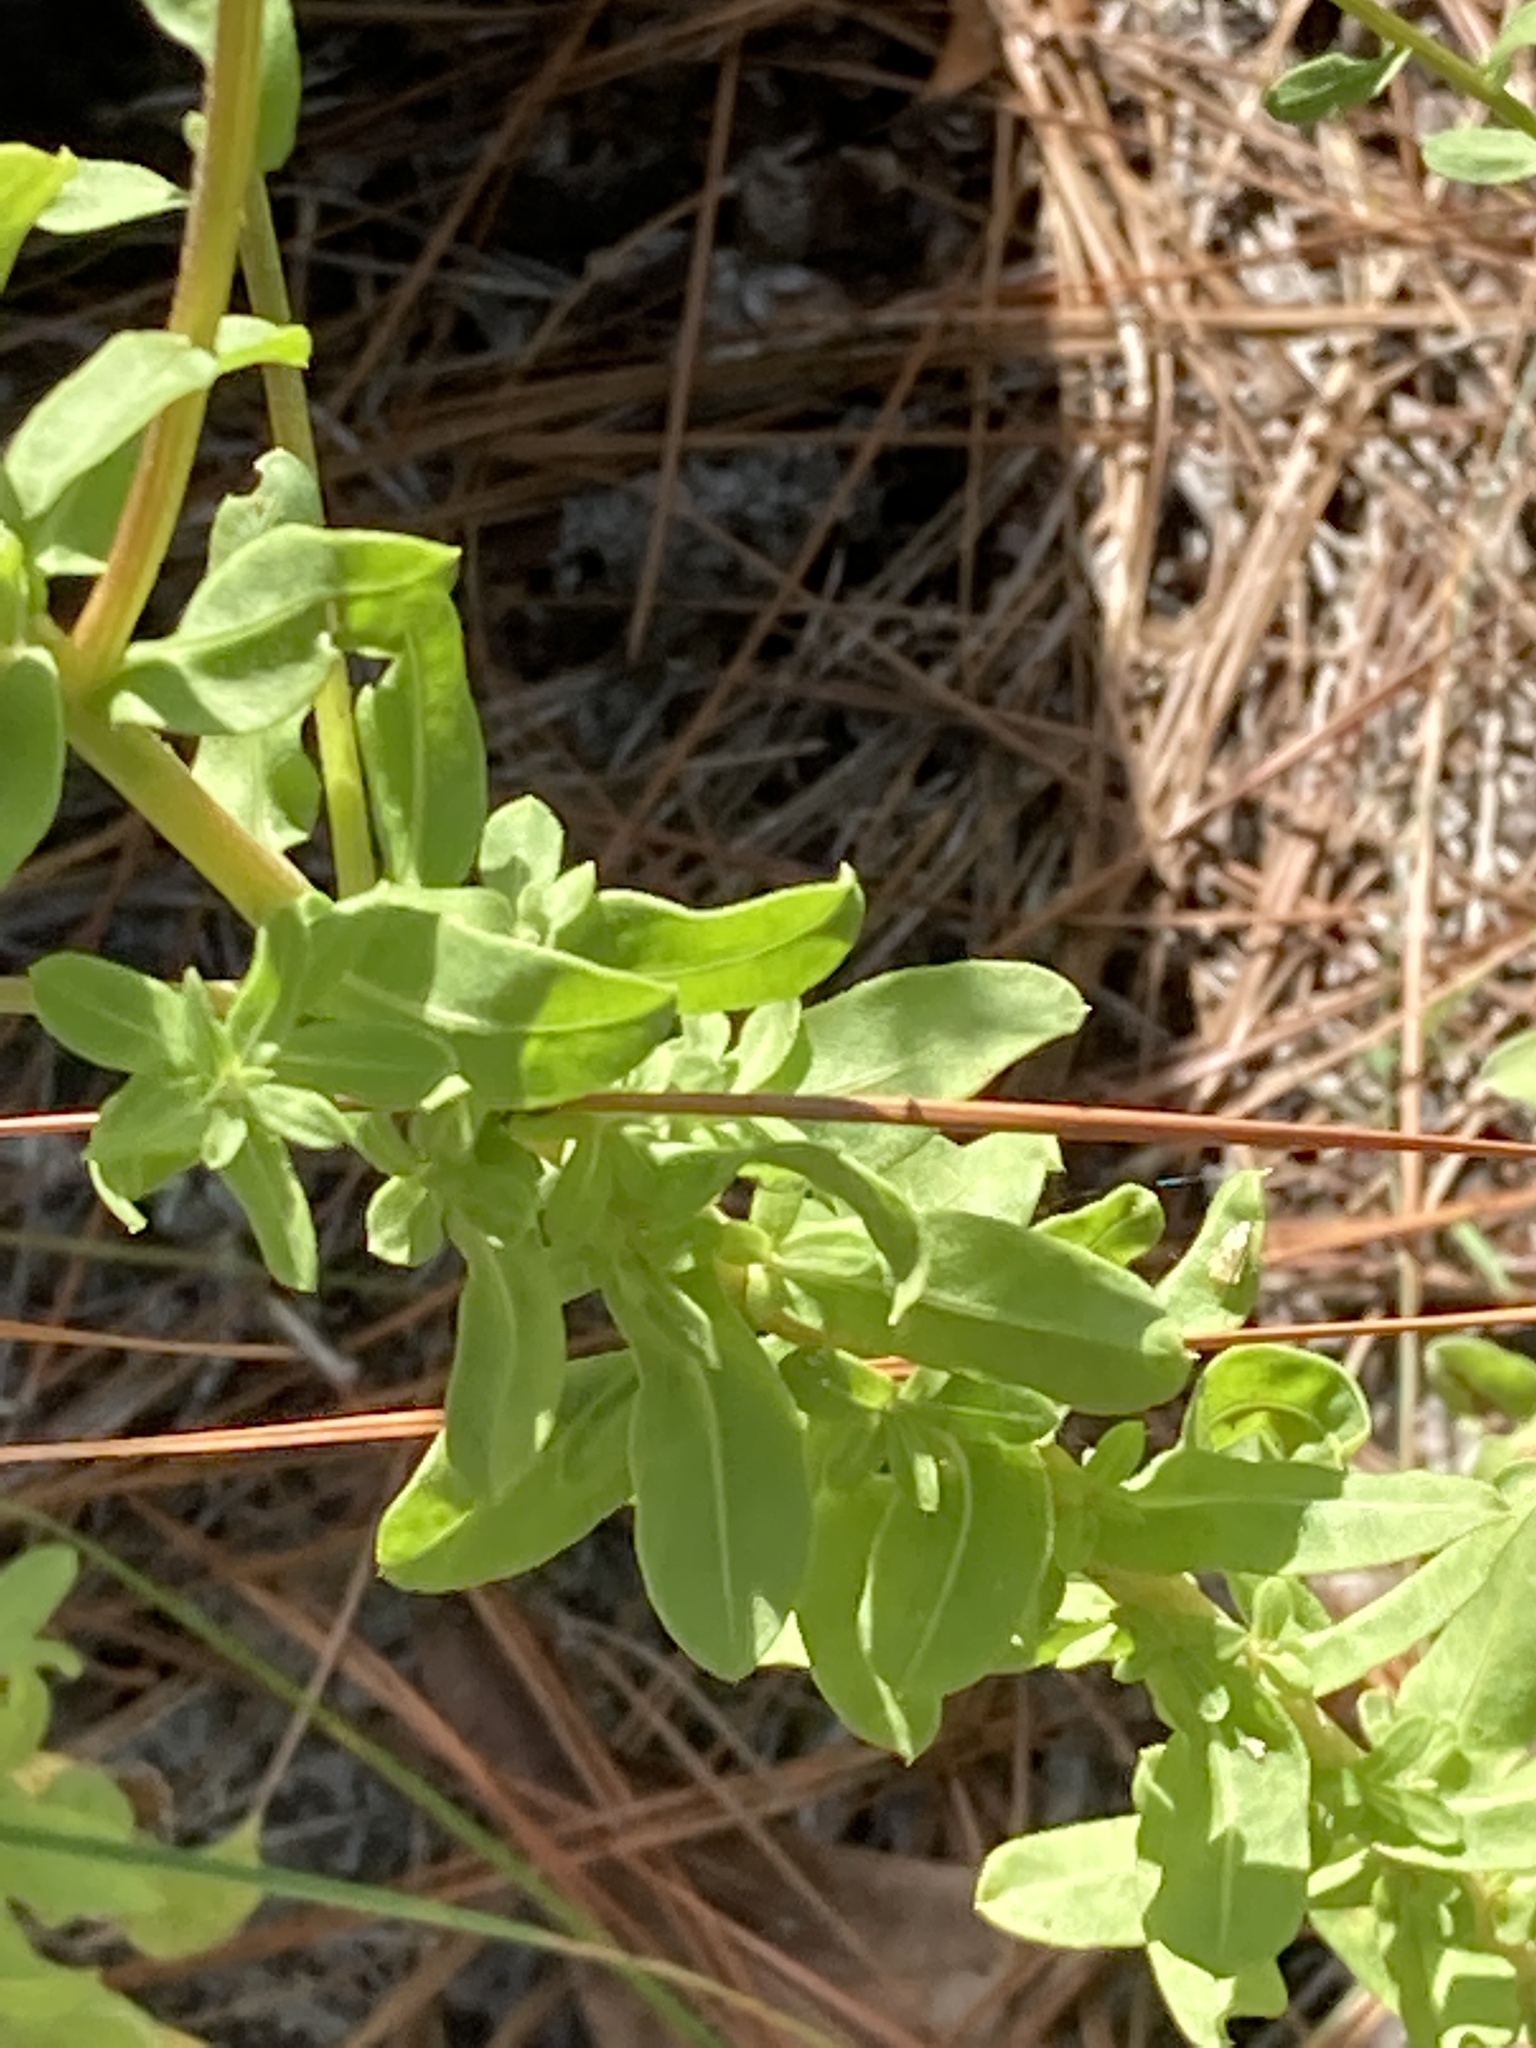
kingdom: Plantae
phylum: Tracheophyta
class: Magnoliopsida
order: Asterales
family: Asteraceae
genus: Chrysopsis
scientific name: Chrysopsis scabrella
